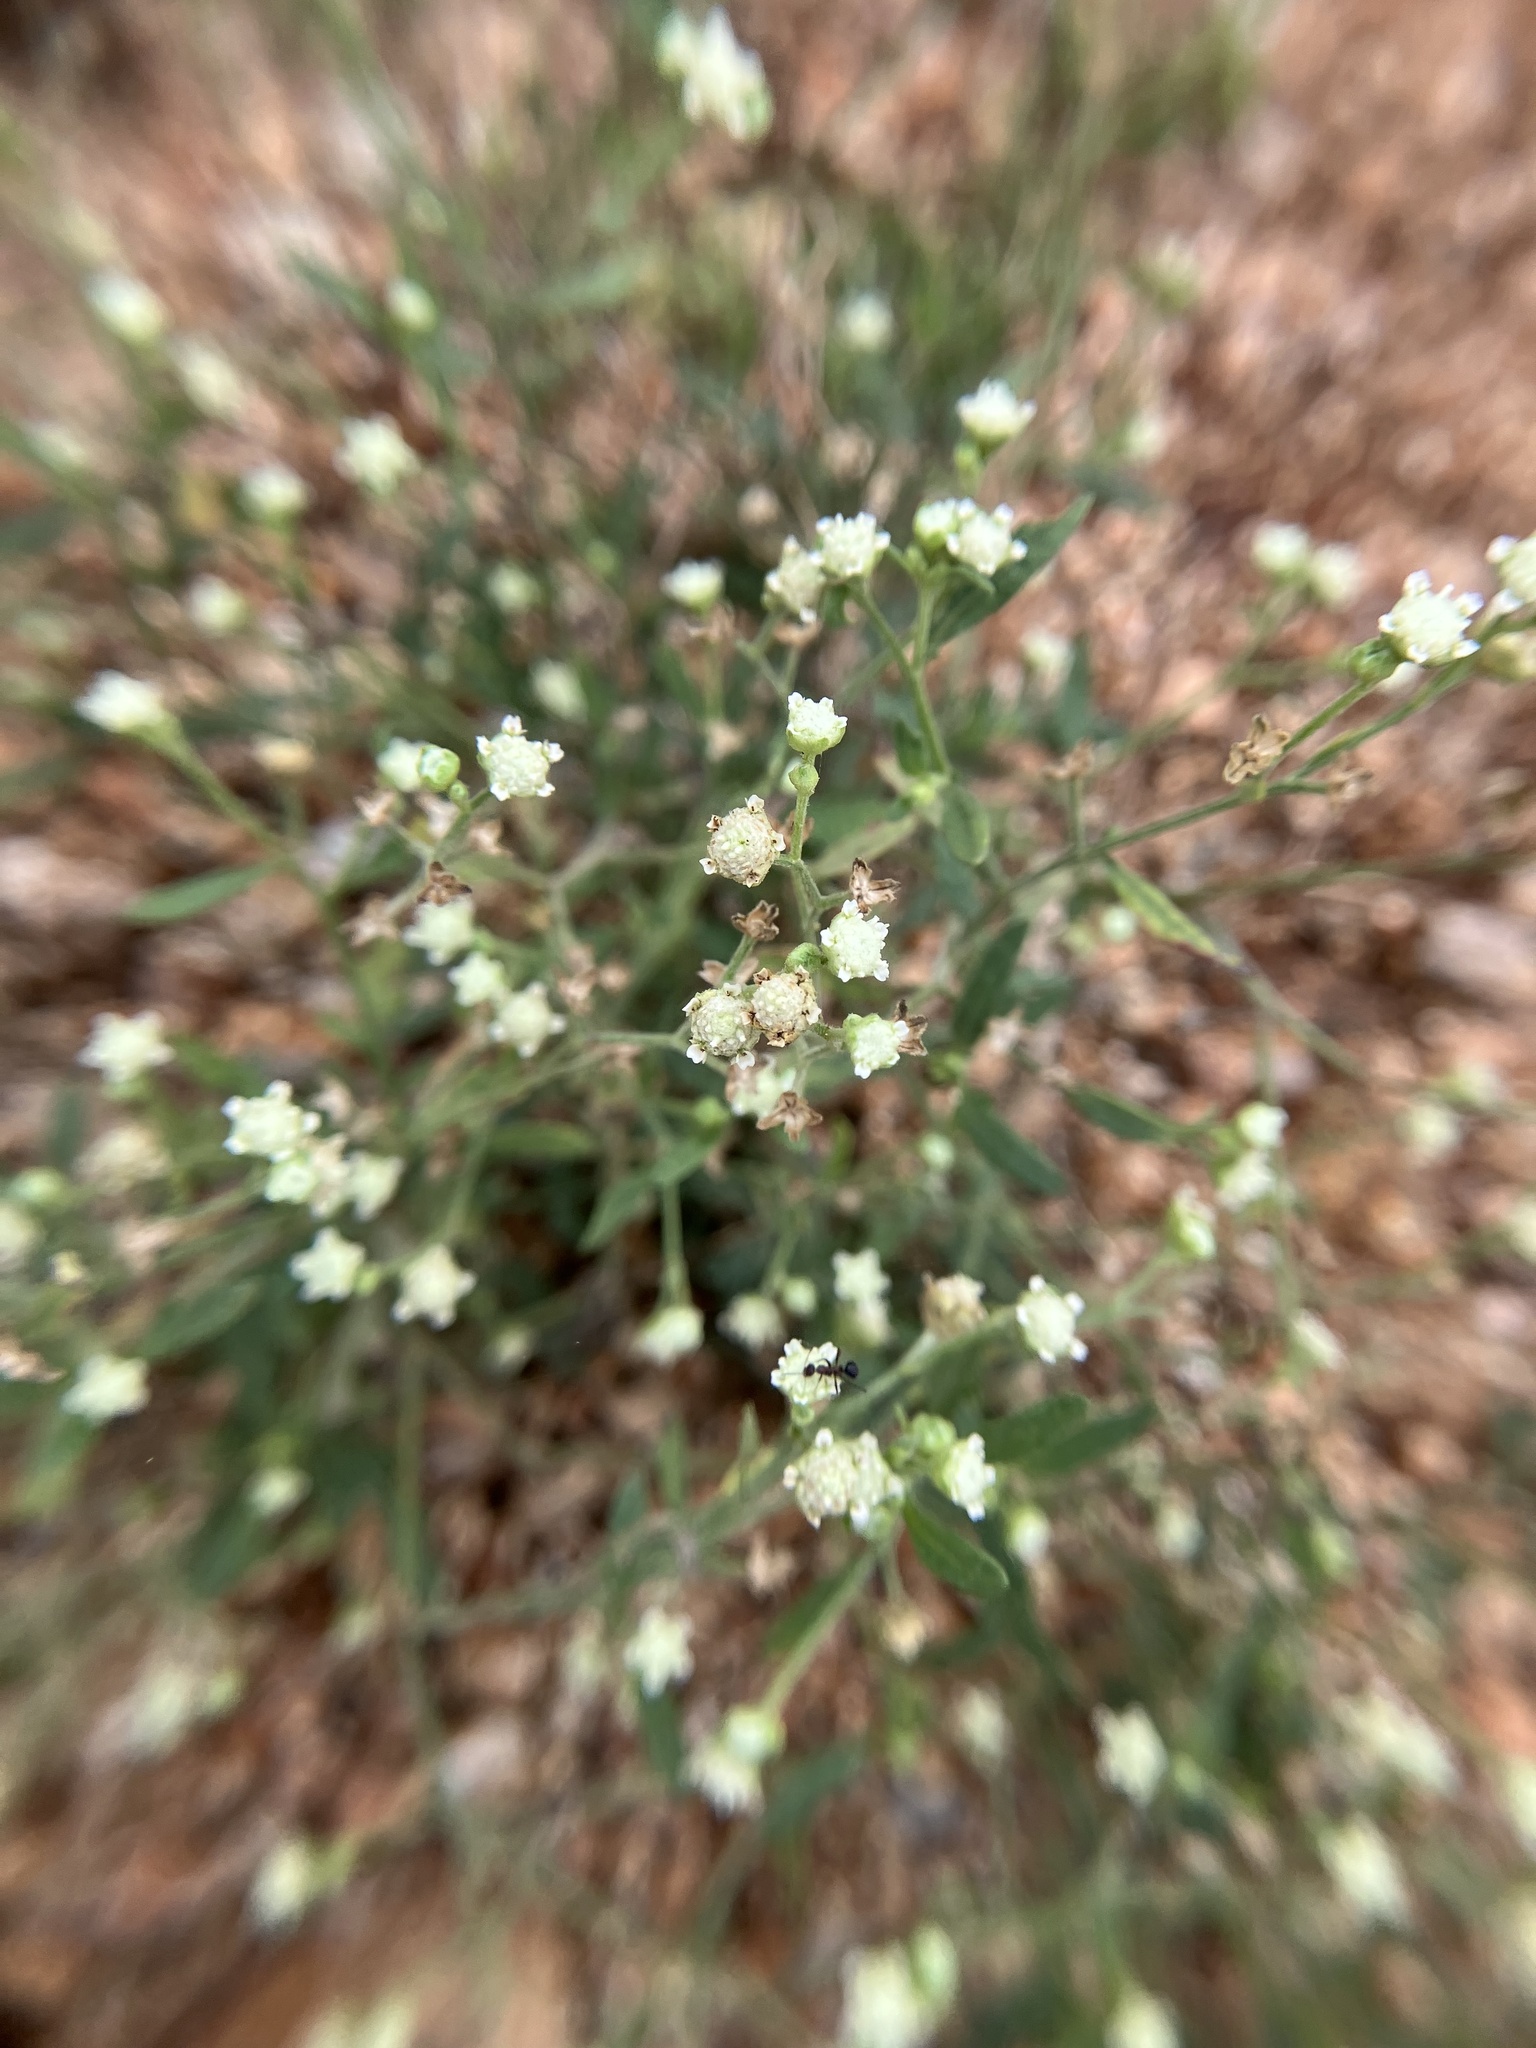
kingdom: Plantae
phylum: Tracheophyta
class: Magnoliopsida
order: Asterales
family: Asteraceae
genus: Parthenium
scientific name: Parthenium hysterophorus
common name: Santa maria feverfew
